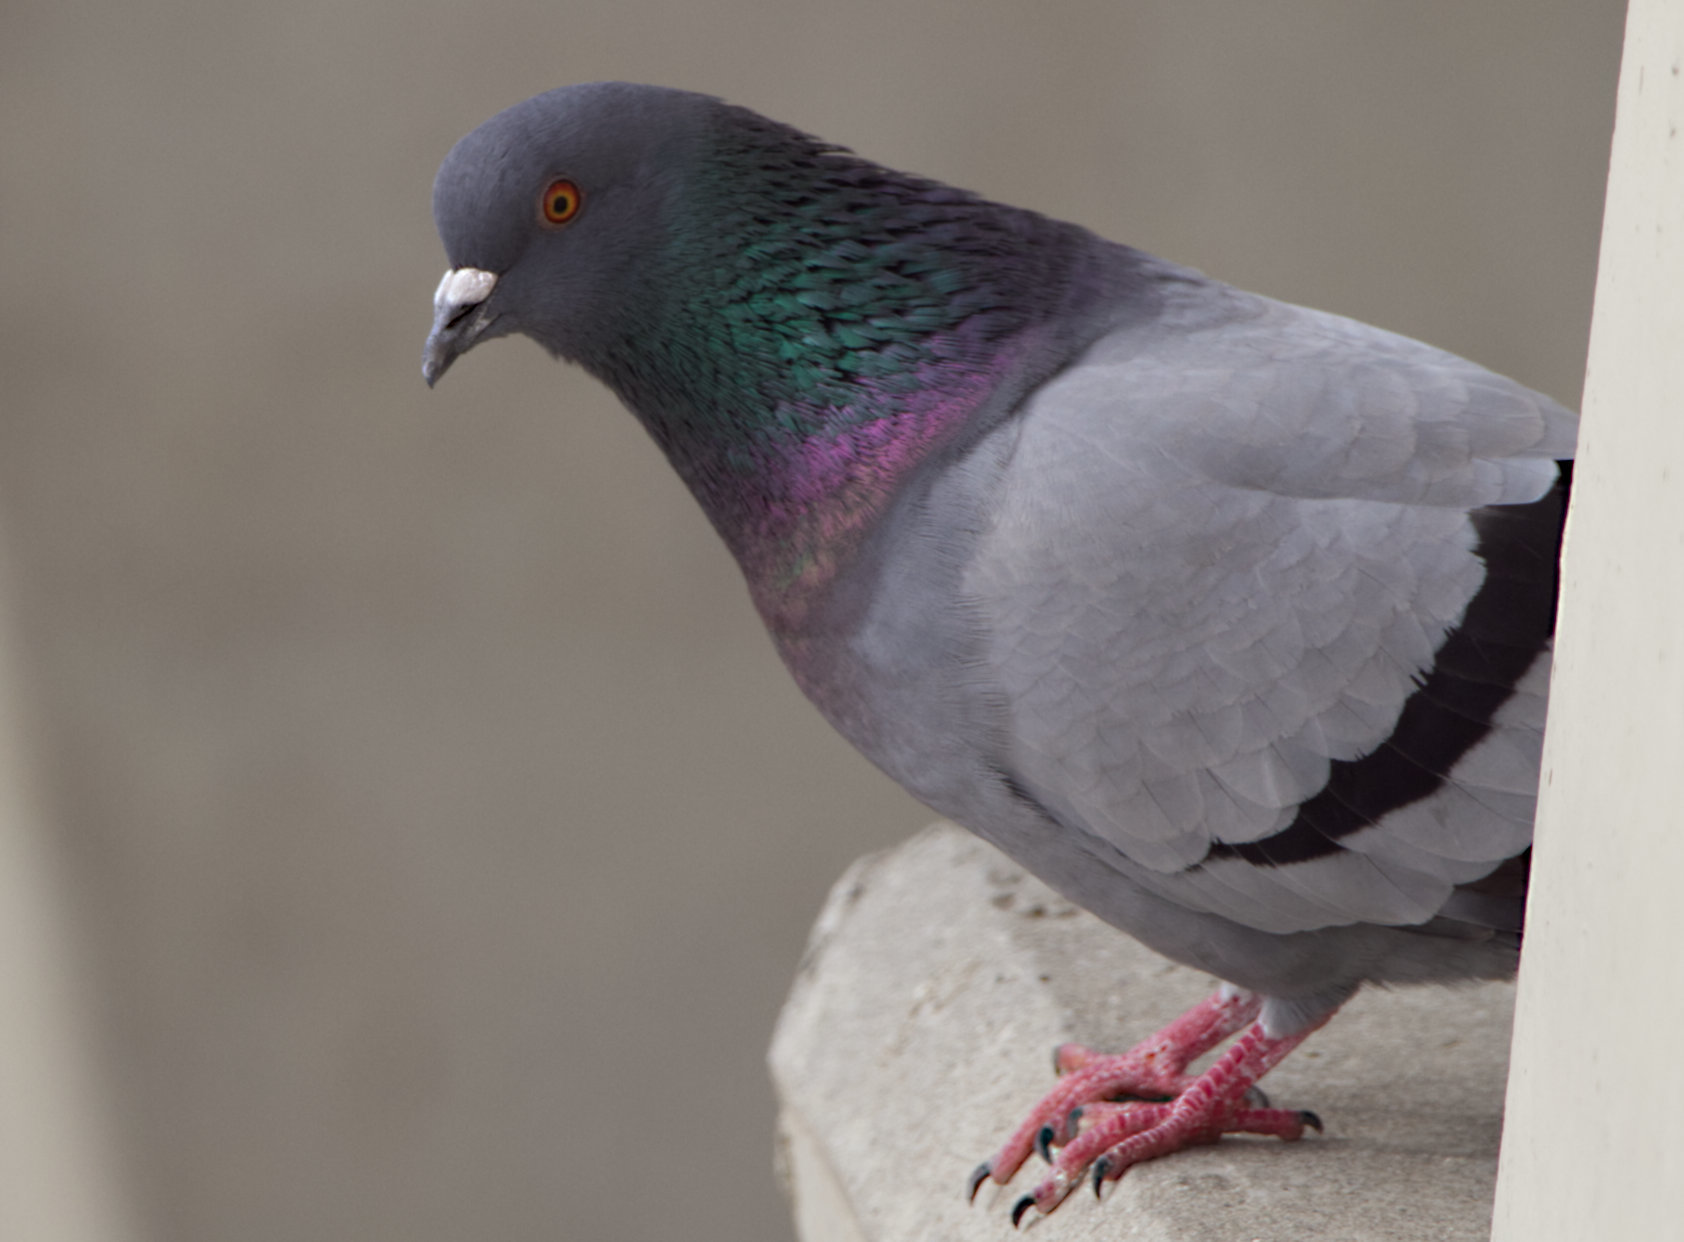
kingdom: Animalia
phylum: Chordata
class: Aves
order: Columbiformes
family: Columbidae
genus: Columba
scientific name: Columba livia
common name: Rock pigeon
